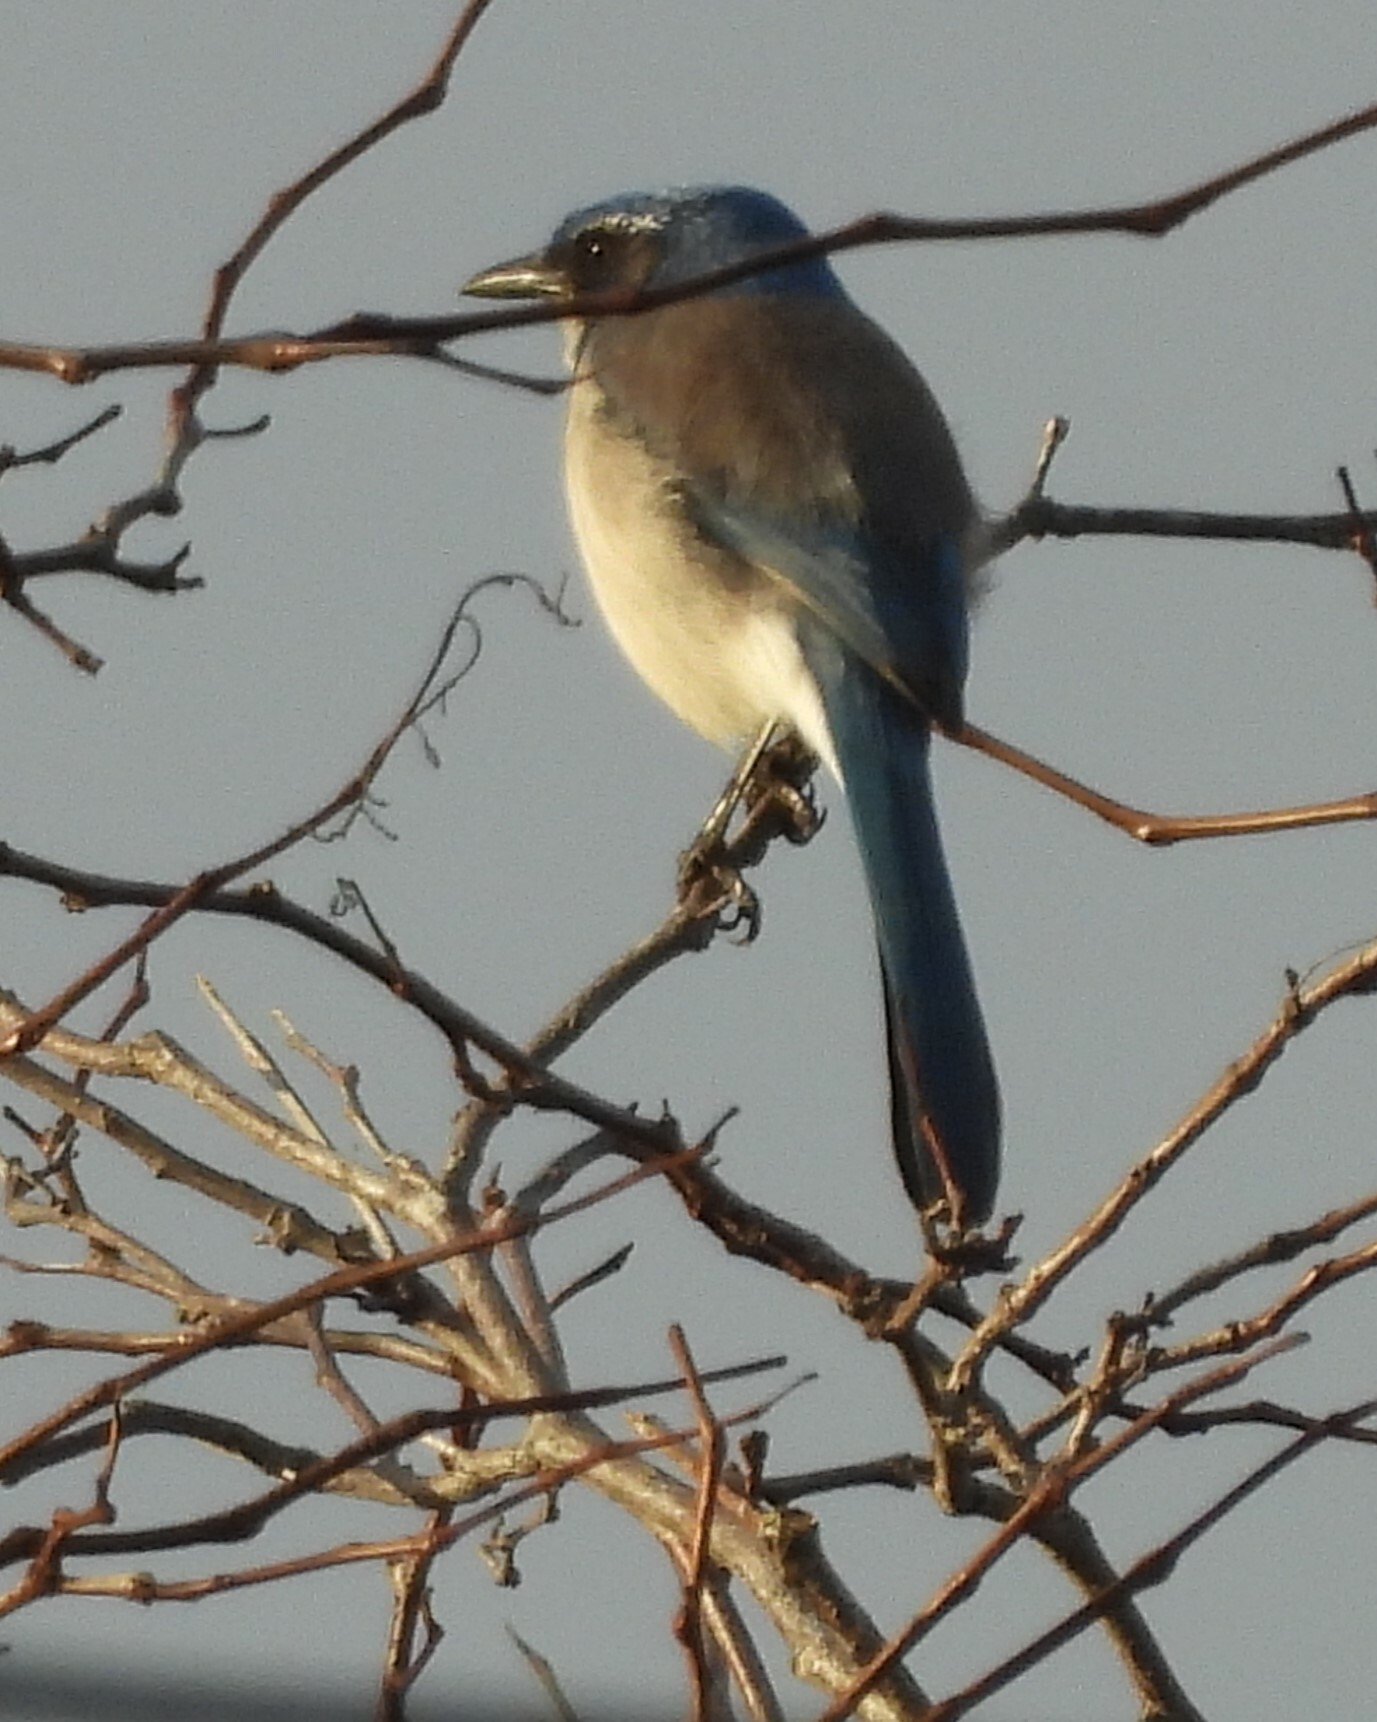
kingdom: Animalia
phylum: Chordata
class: Aves
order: Passeriformes
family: Corvidae
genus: Aphelocoma
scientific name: Aphelocoma californica
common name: California scrub-jay
